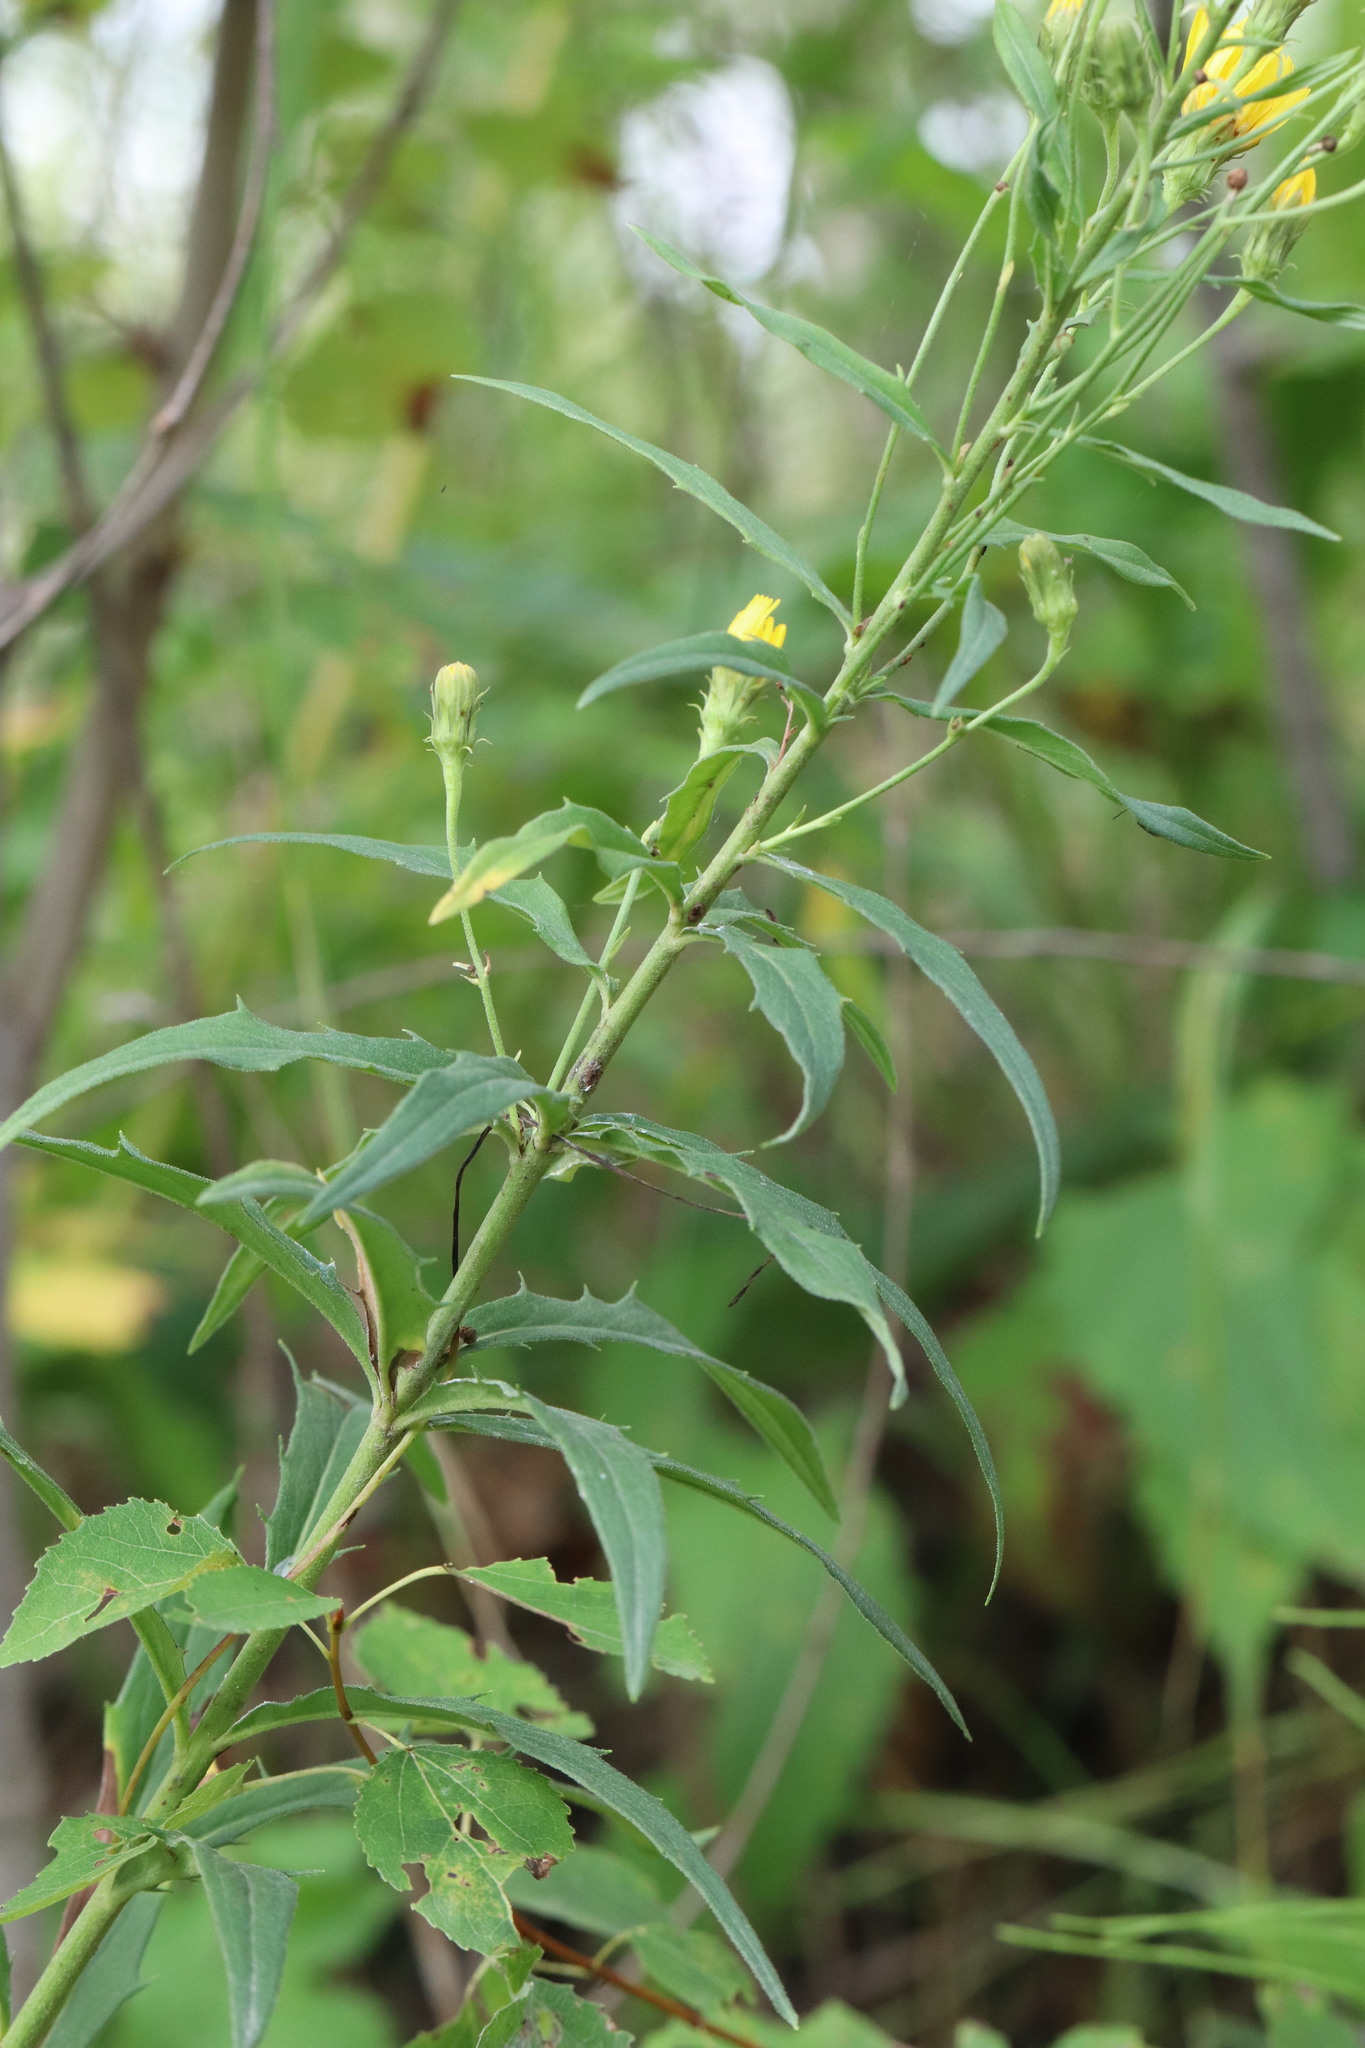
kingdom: Plantae
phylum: Tracheophyta
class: Magnoliopsida
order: Asterales
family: Asteraceae
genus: Hieracium
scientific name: Hieracium umbellatum
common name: Northern hawkweed
